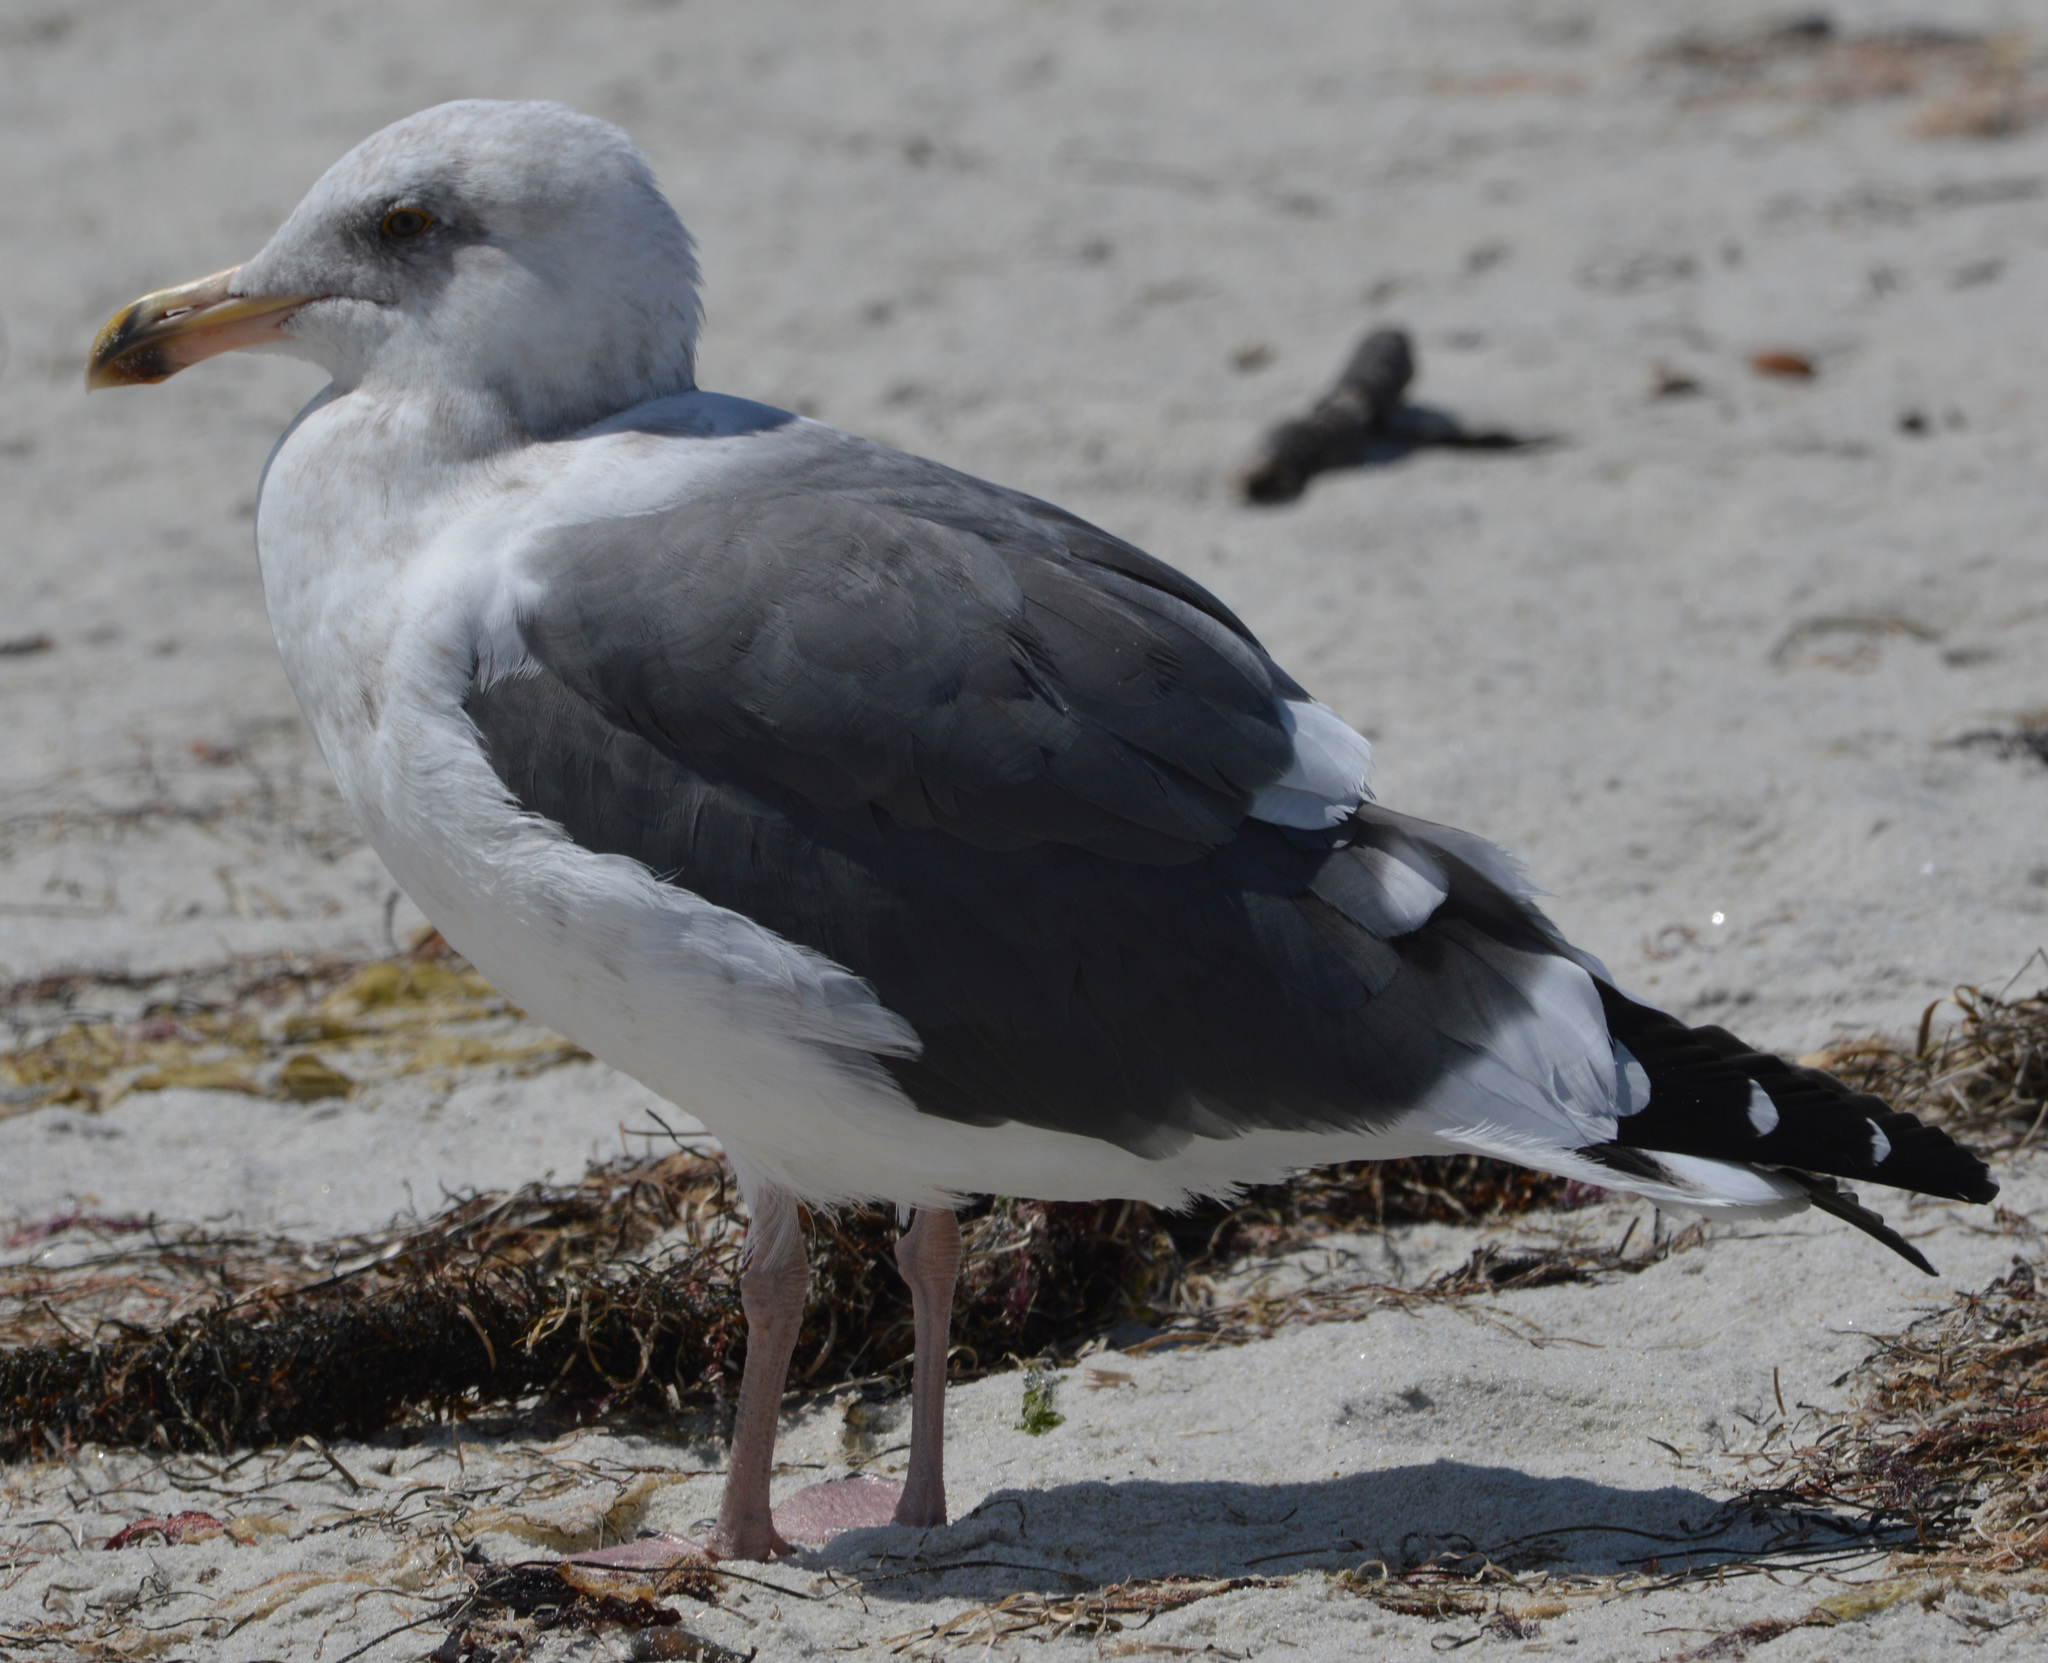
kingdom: Animalia
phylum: Chordata
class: Aves
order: Charadriiformes
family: Laridae
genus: Larus
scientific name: Larus occidentalis
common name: Western gull
